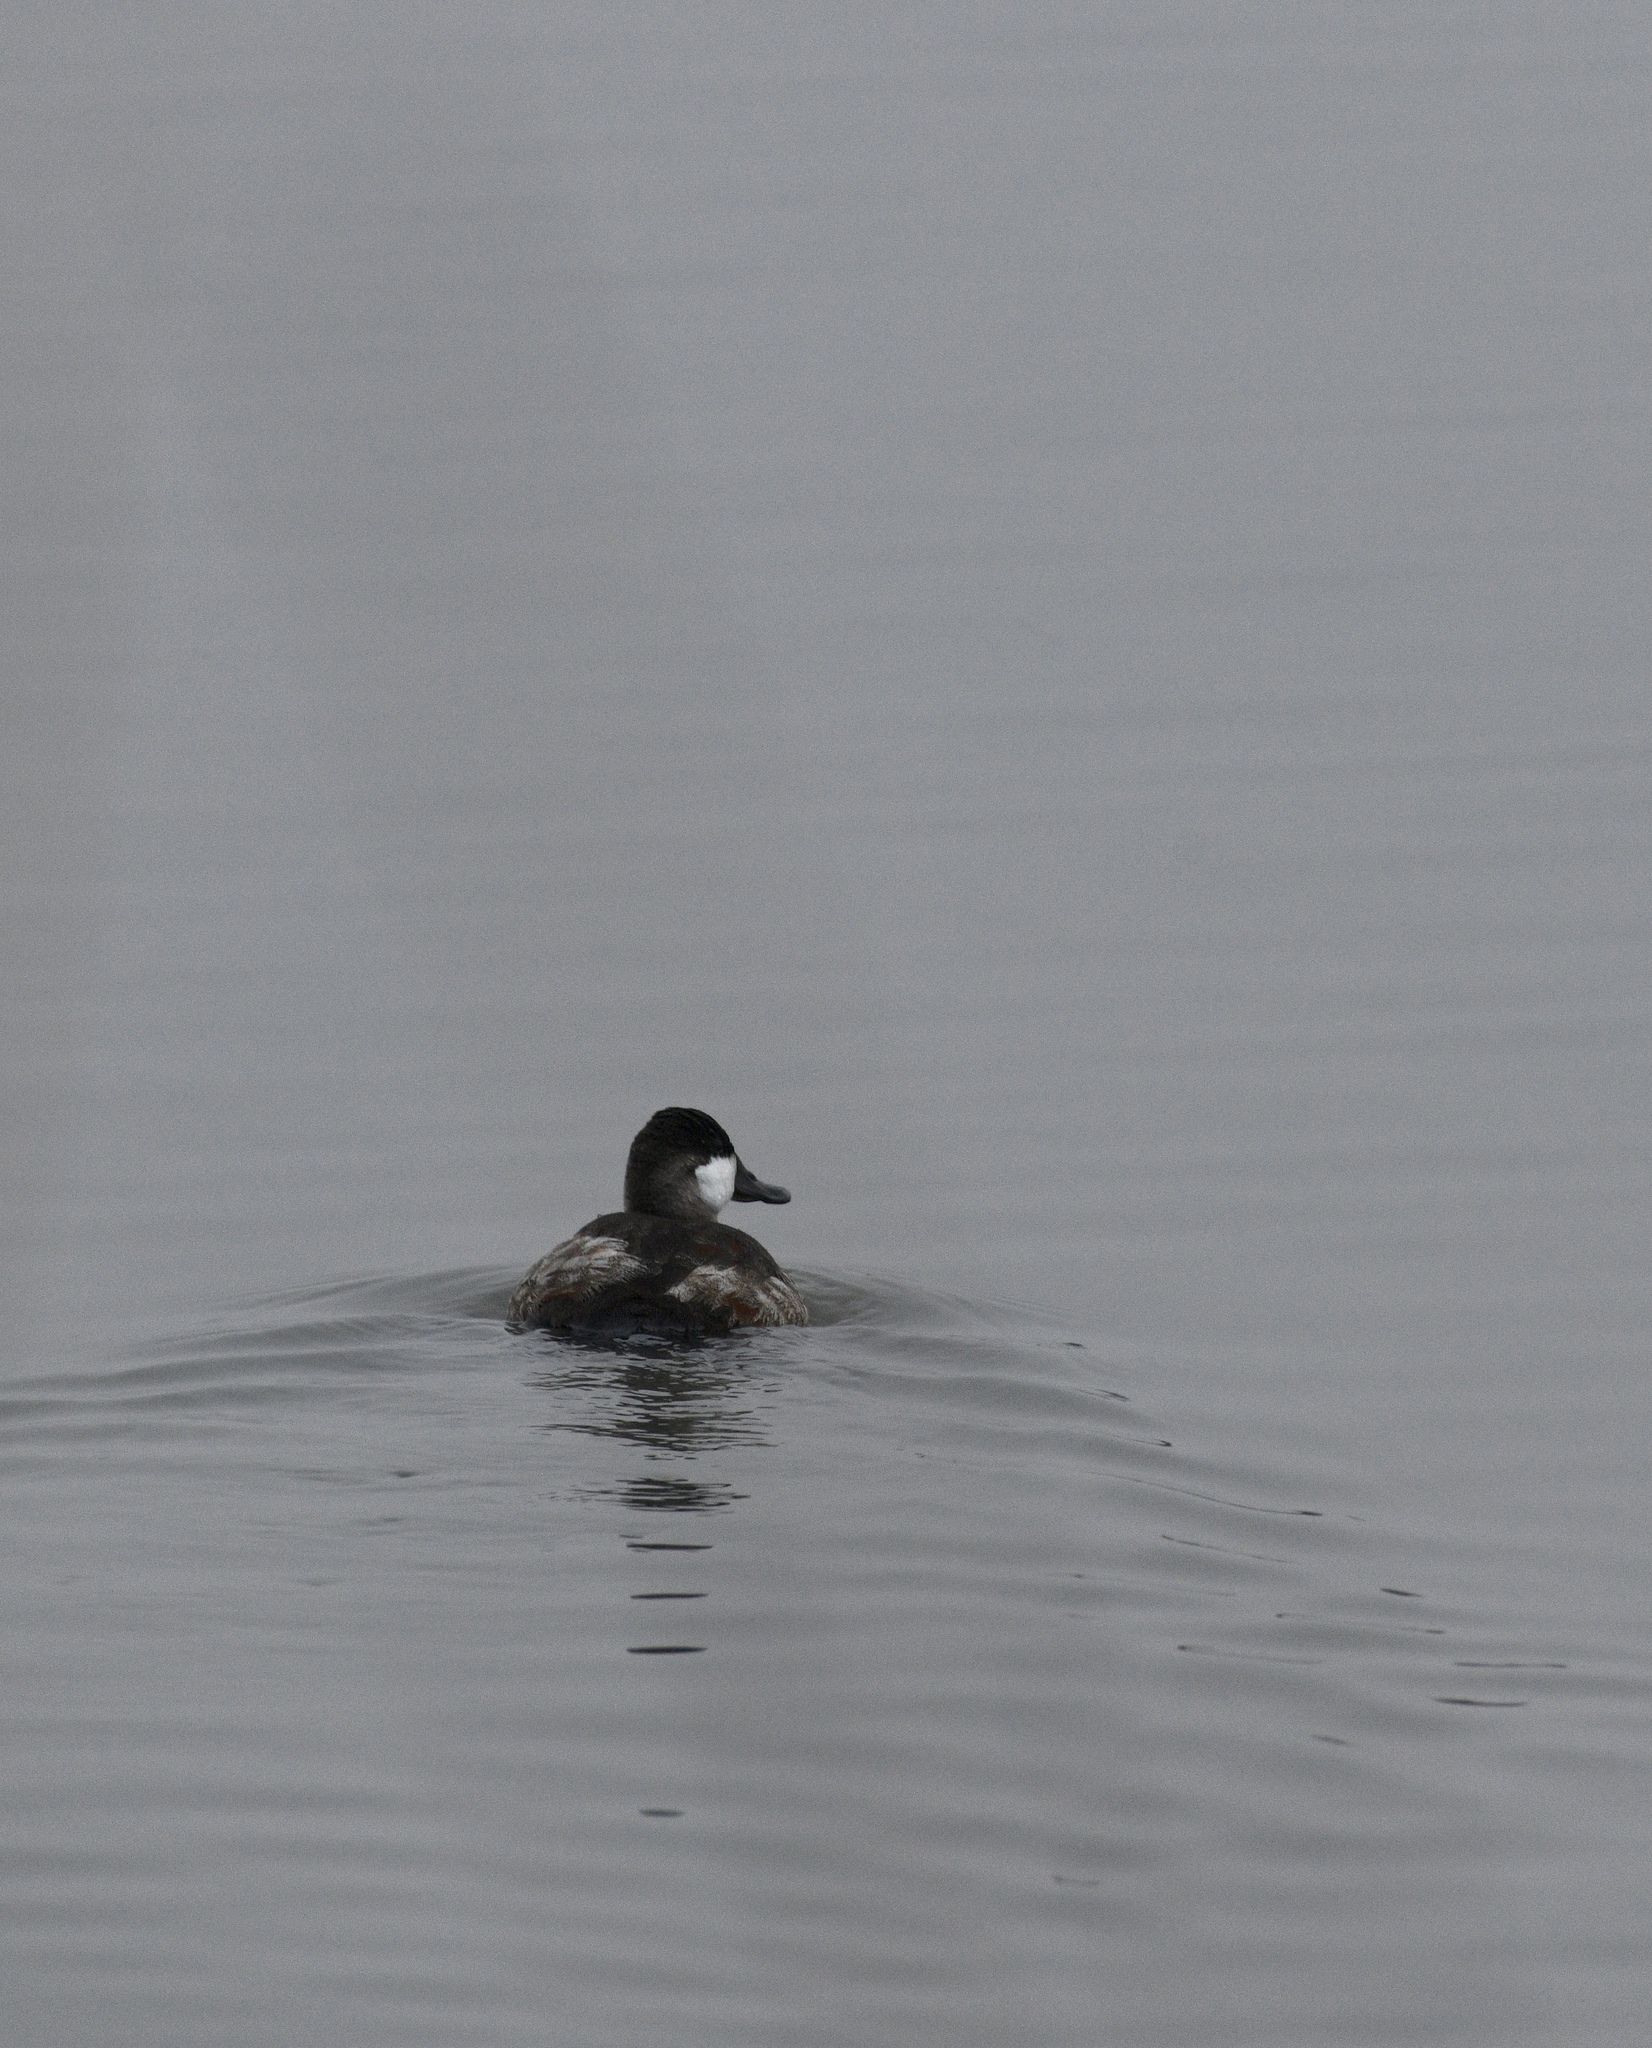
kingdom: Animalia
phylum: Chordata
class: Aves
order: Anseriformes
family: Anatidae
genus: Oxyura
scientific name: Oxyura jamaicensis
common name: Ruddy duck
